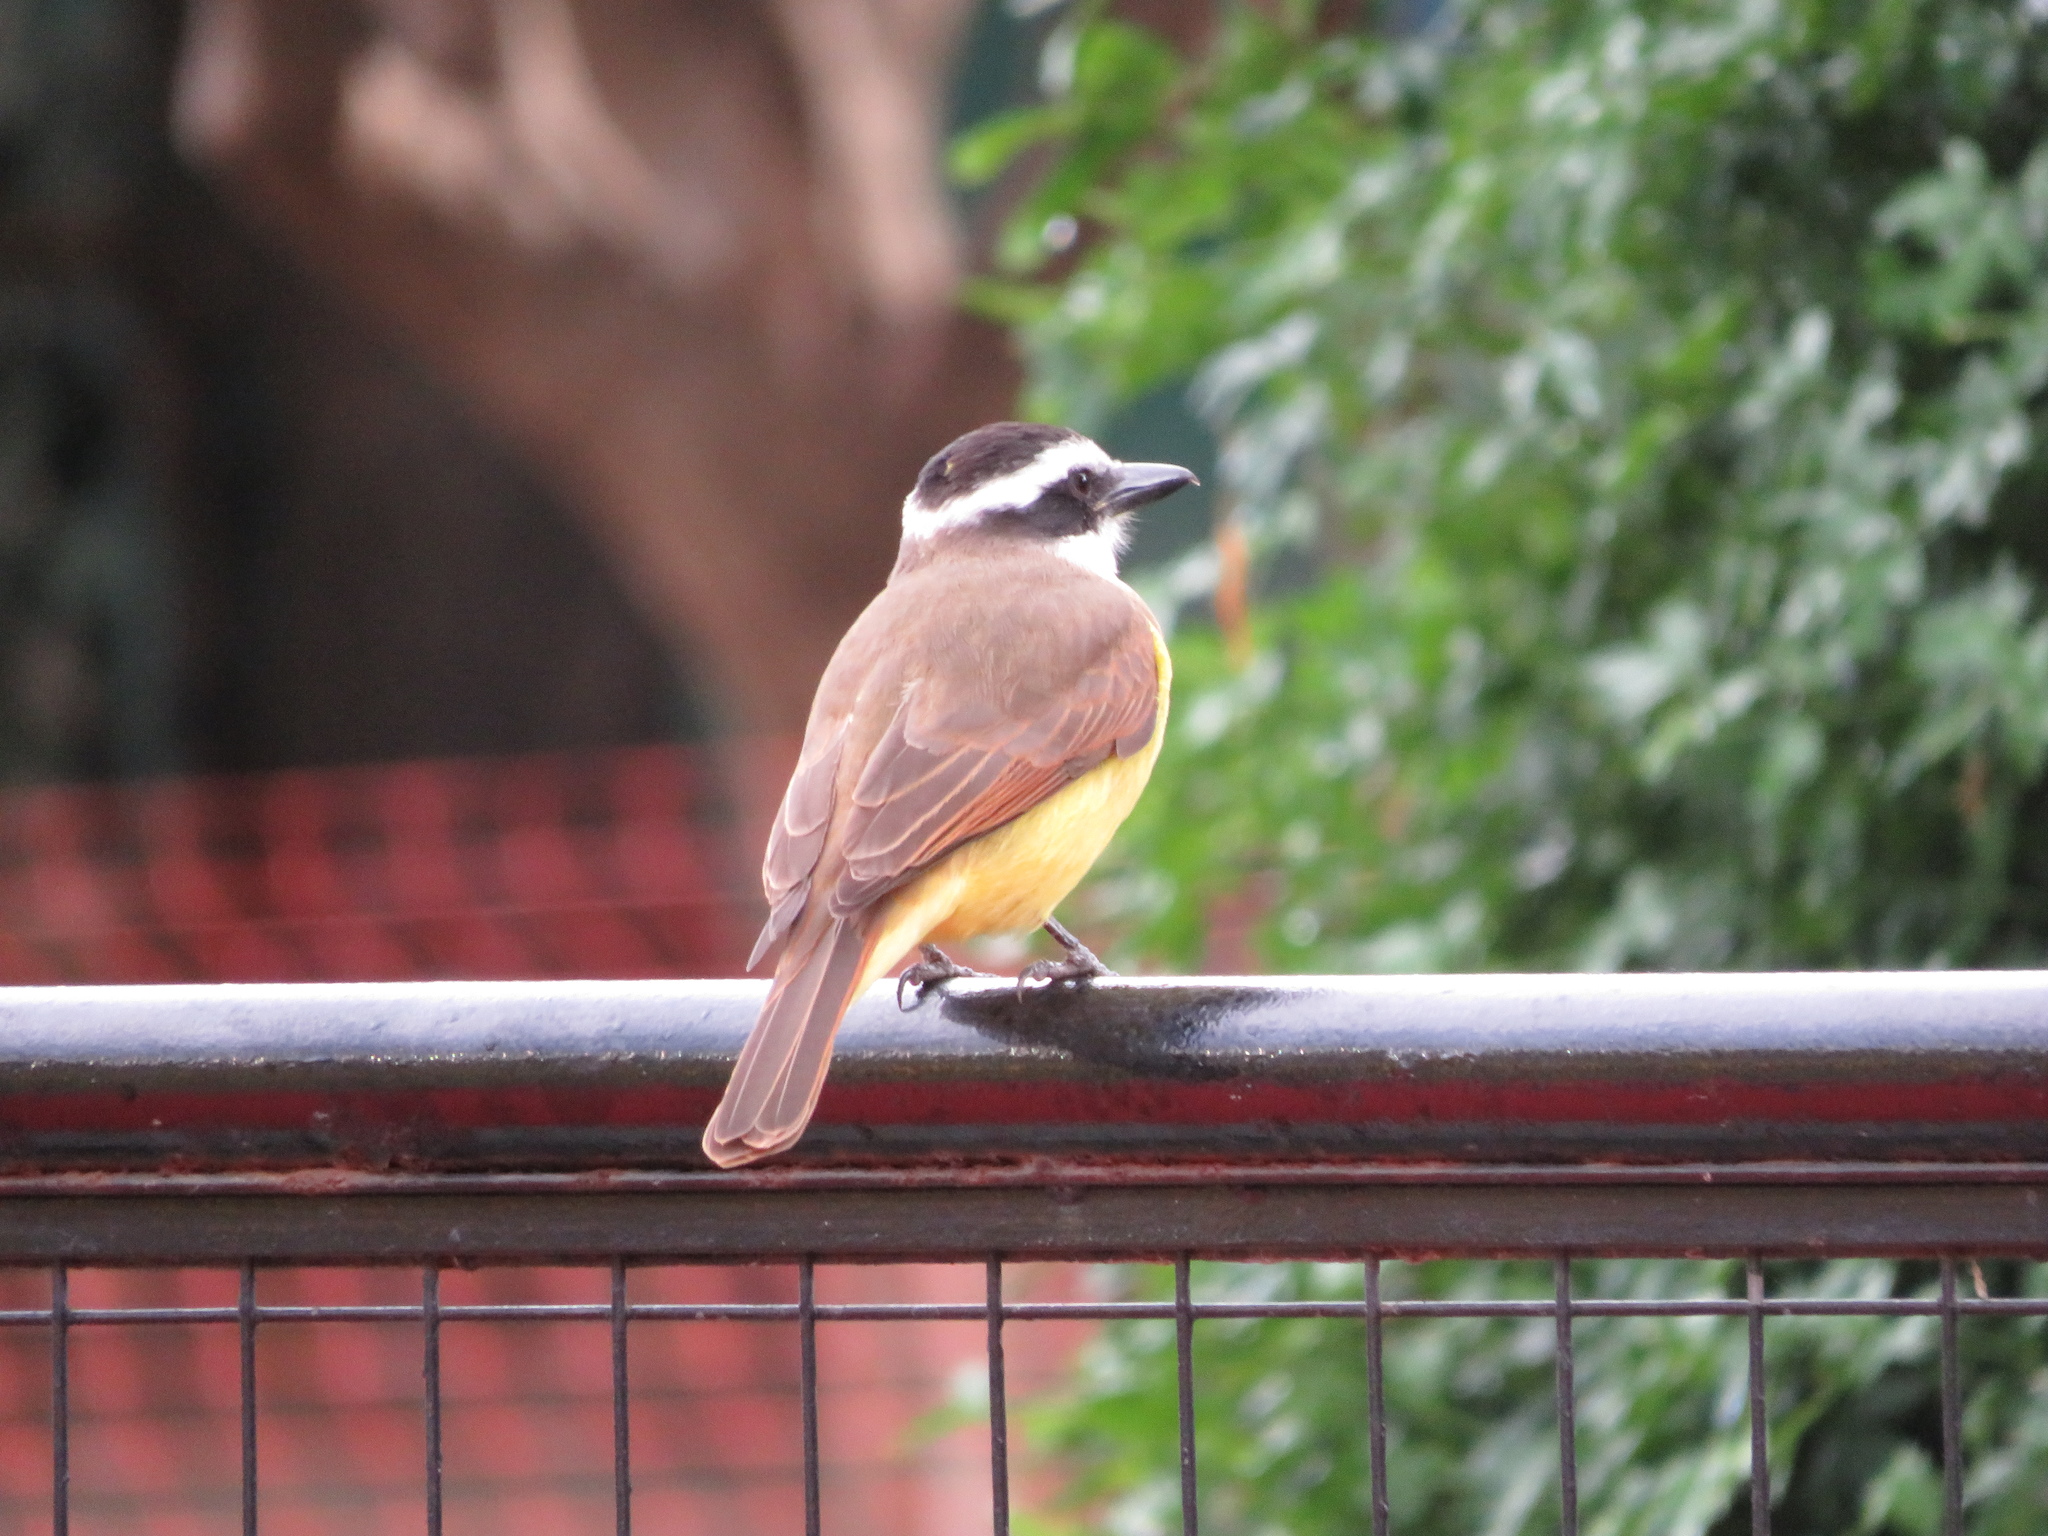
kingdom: Animalia
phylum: Chordata
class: Aves
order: Passeriformes
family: Tyrannidae
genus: Pitangus
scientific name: Pitangus sulphuratus
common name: Great kiskadee
